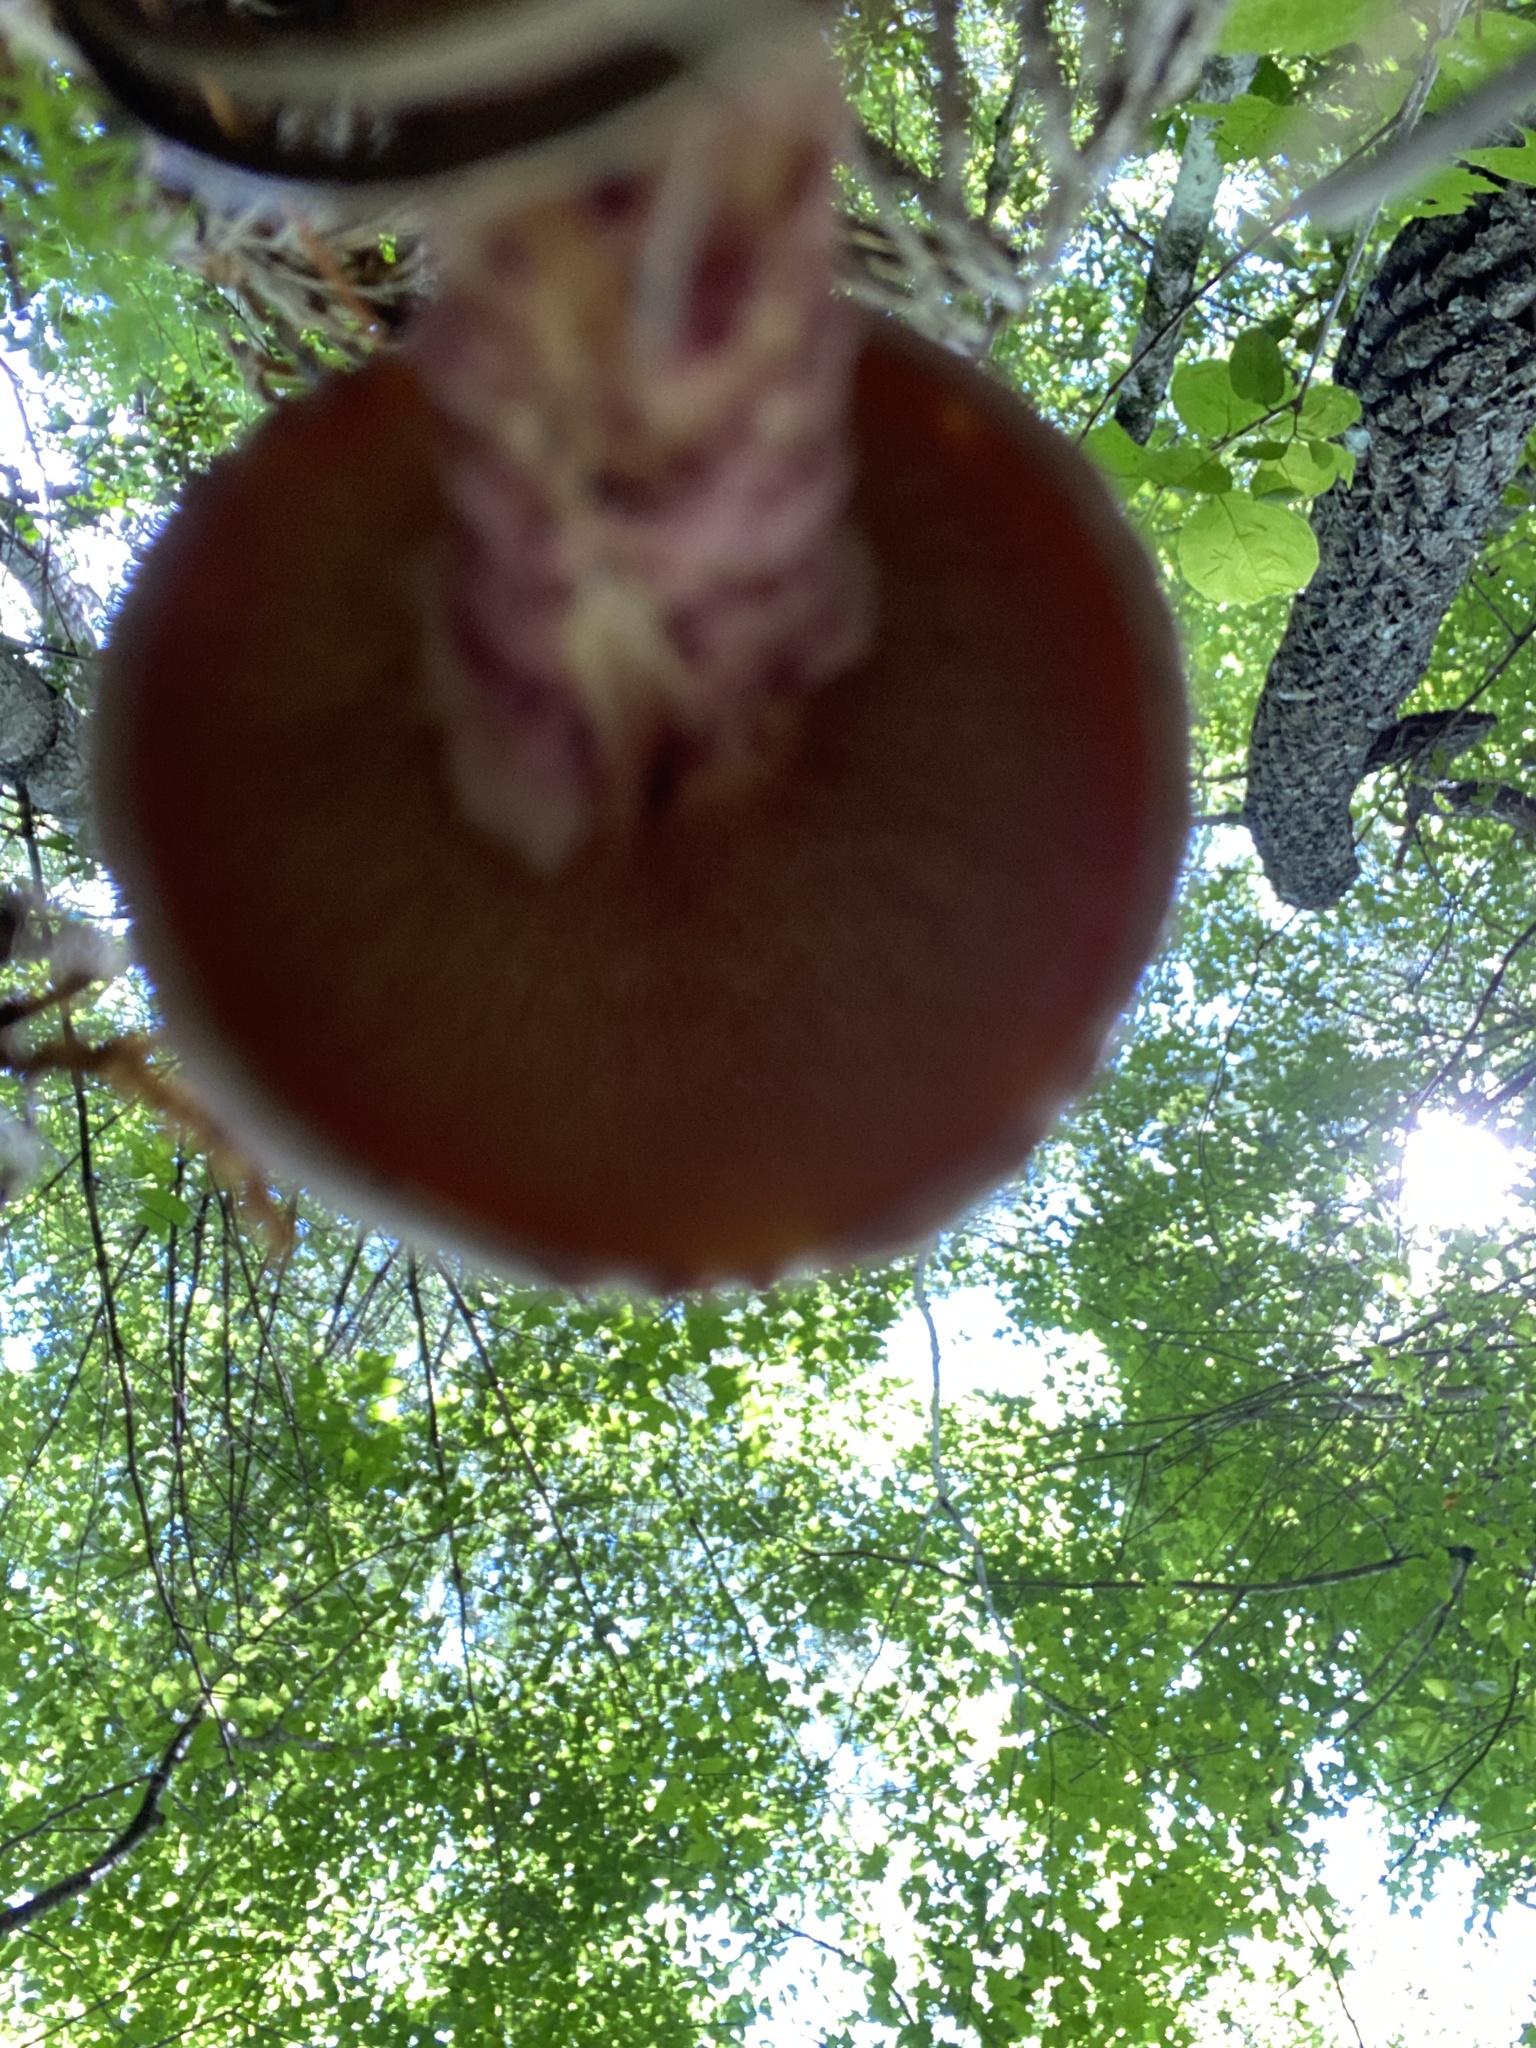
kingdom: Fungi
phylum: Basidiomycota
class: Agaricomycetes
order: Boletales
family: Suillaceae
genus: Suillus
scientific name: Suillus spraguei
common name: Painted suillus
